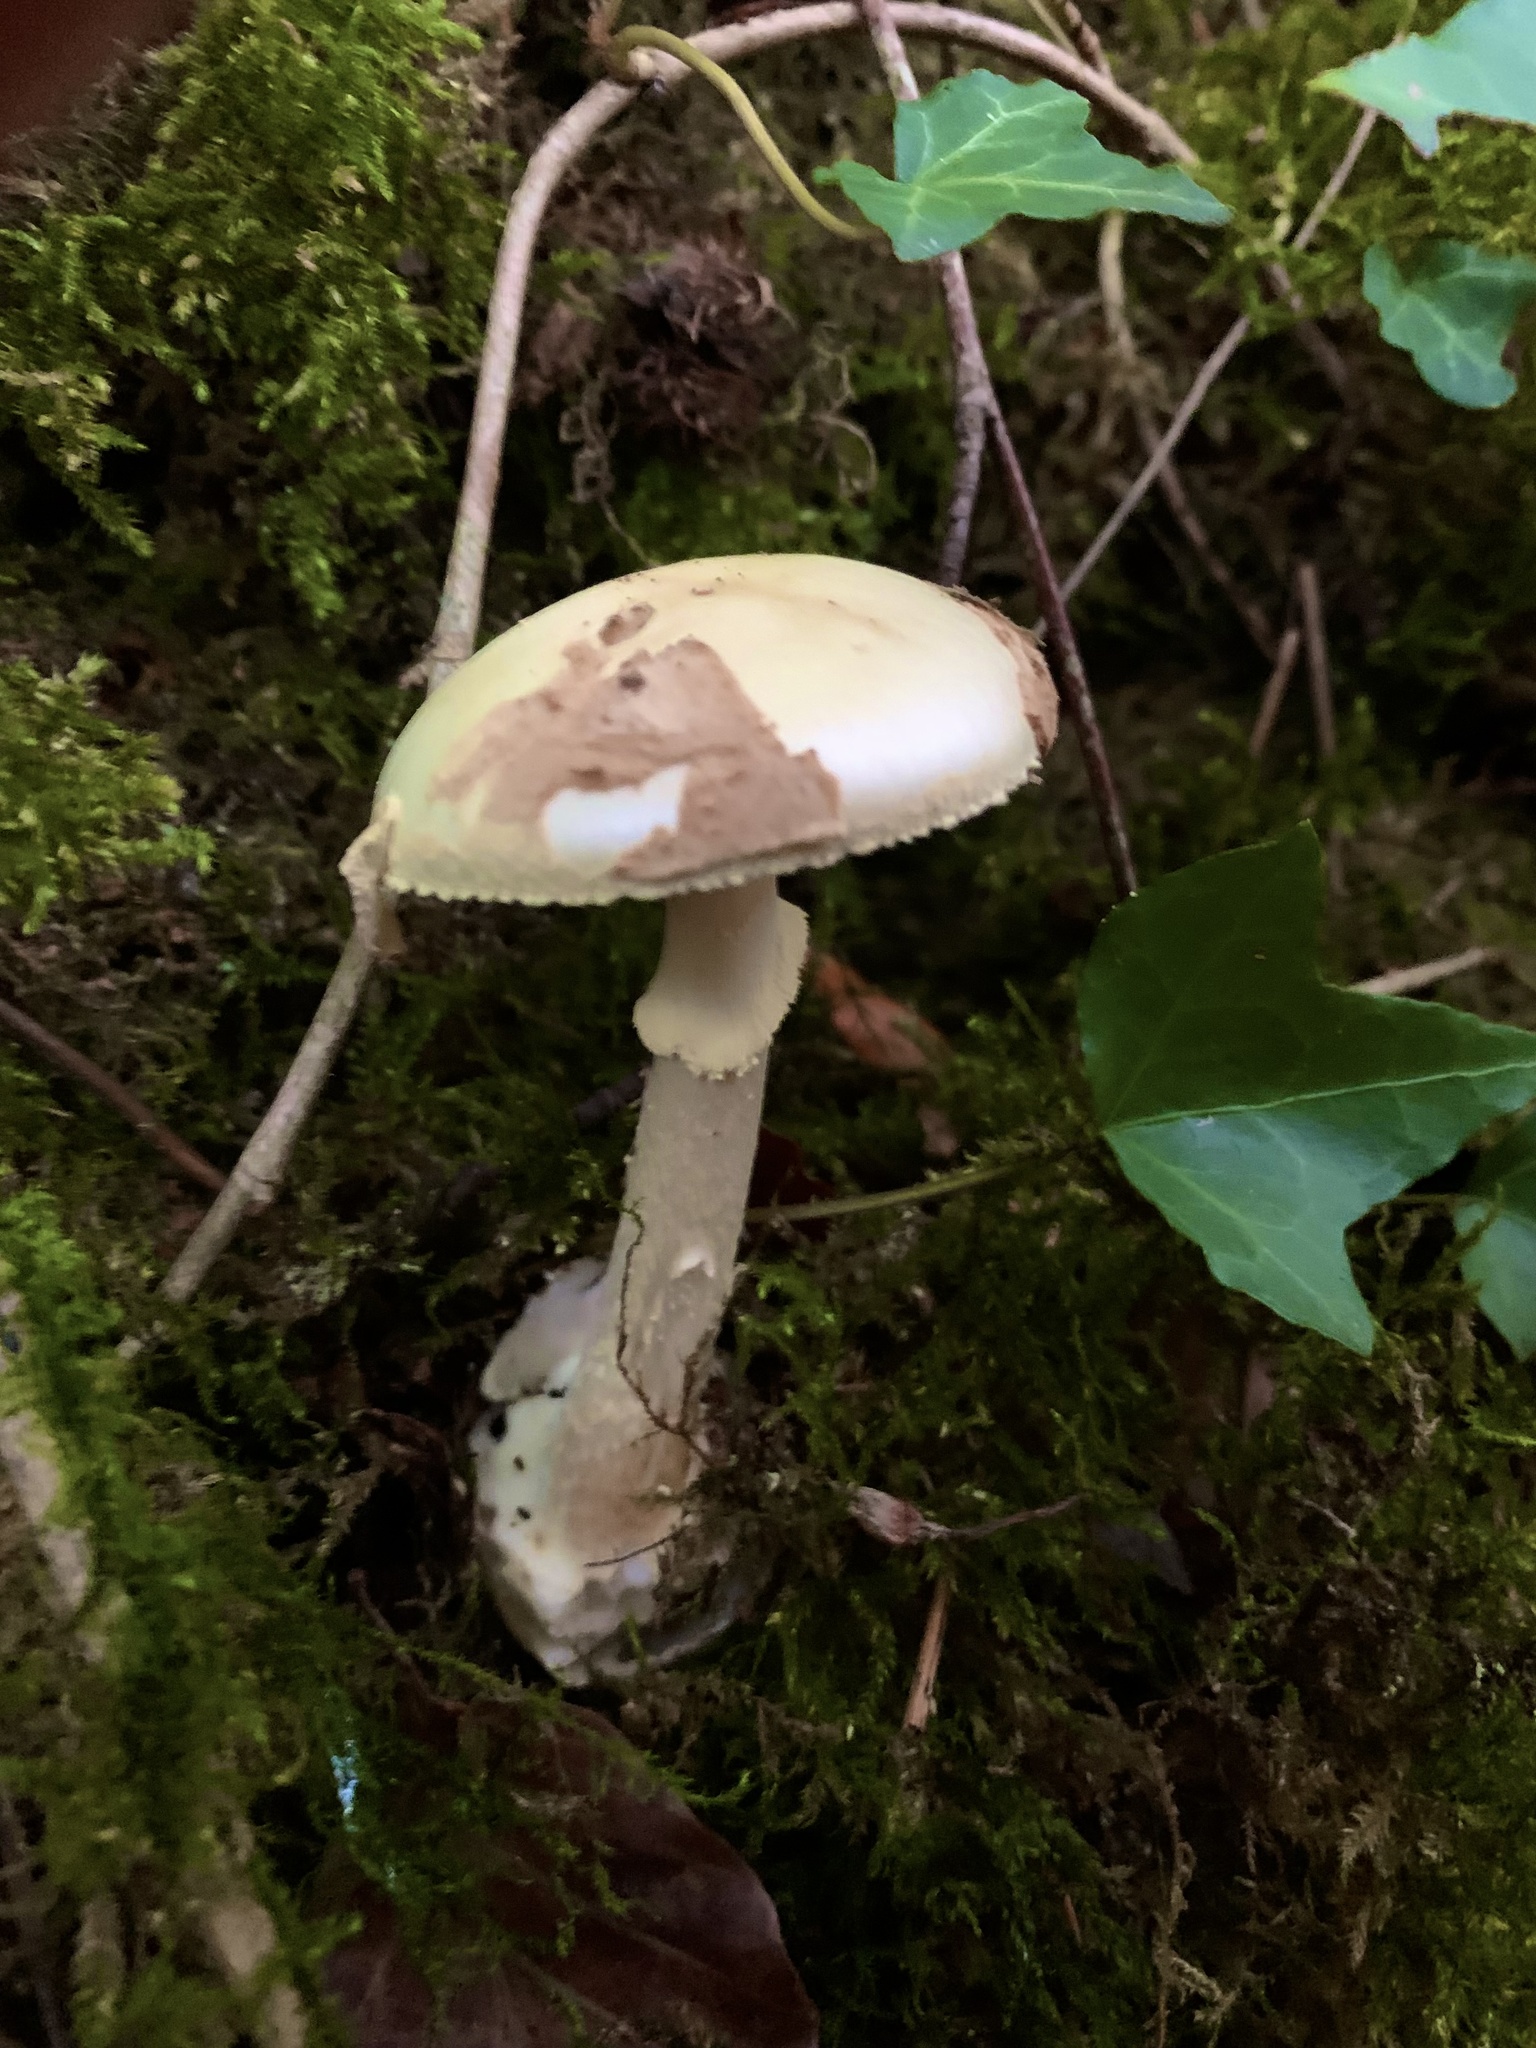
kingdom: Fungi
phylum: Basidiomycota
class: Agaricomycetes
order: Agaricales
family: Amanitaceae
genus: Amanita
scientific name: Amanita citrina
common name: False death-cap
